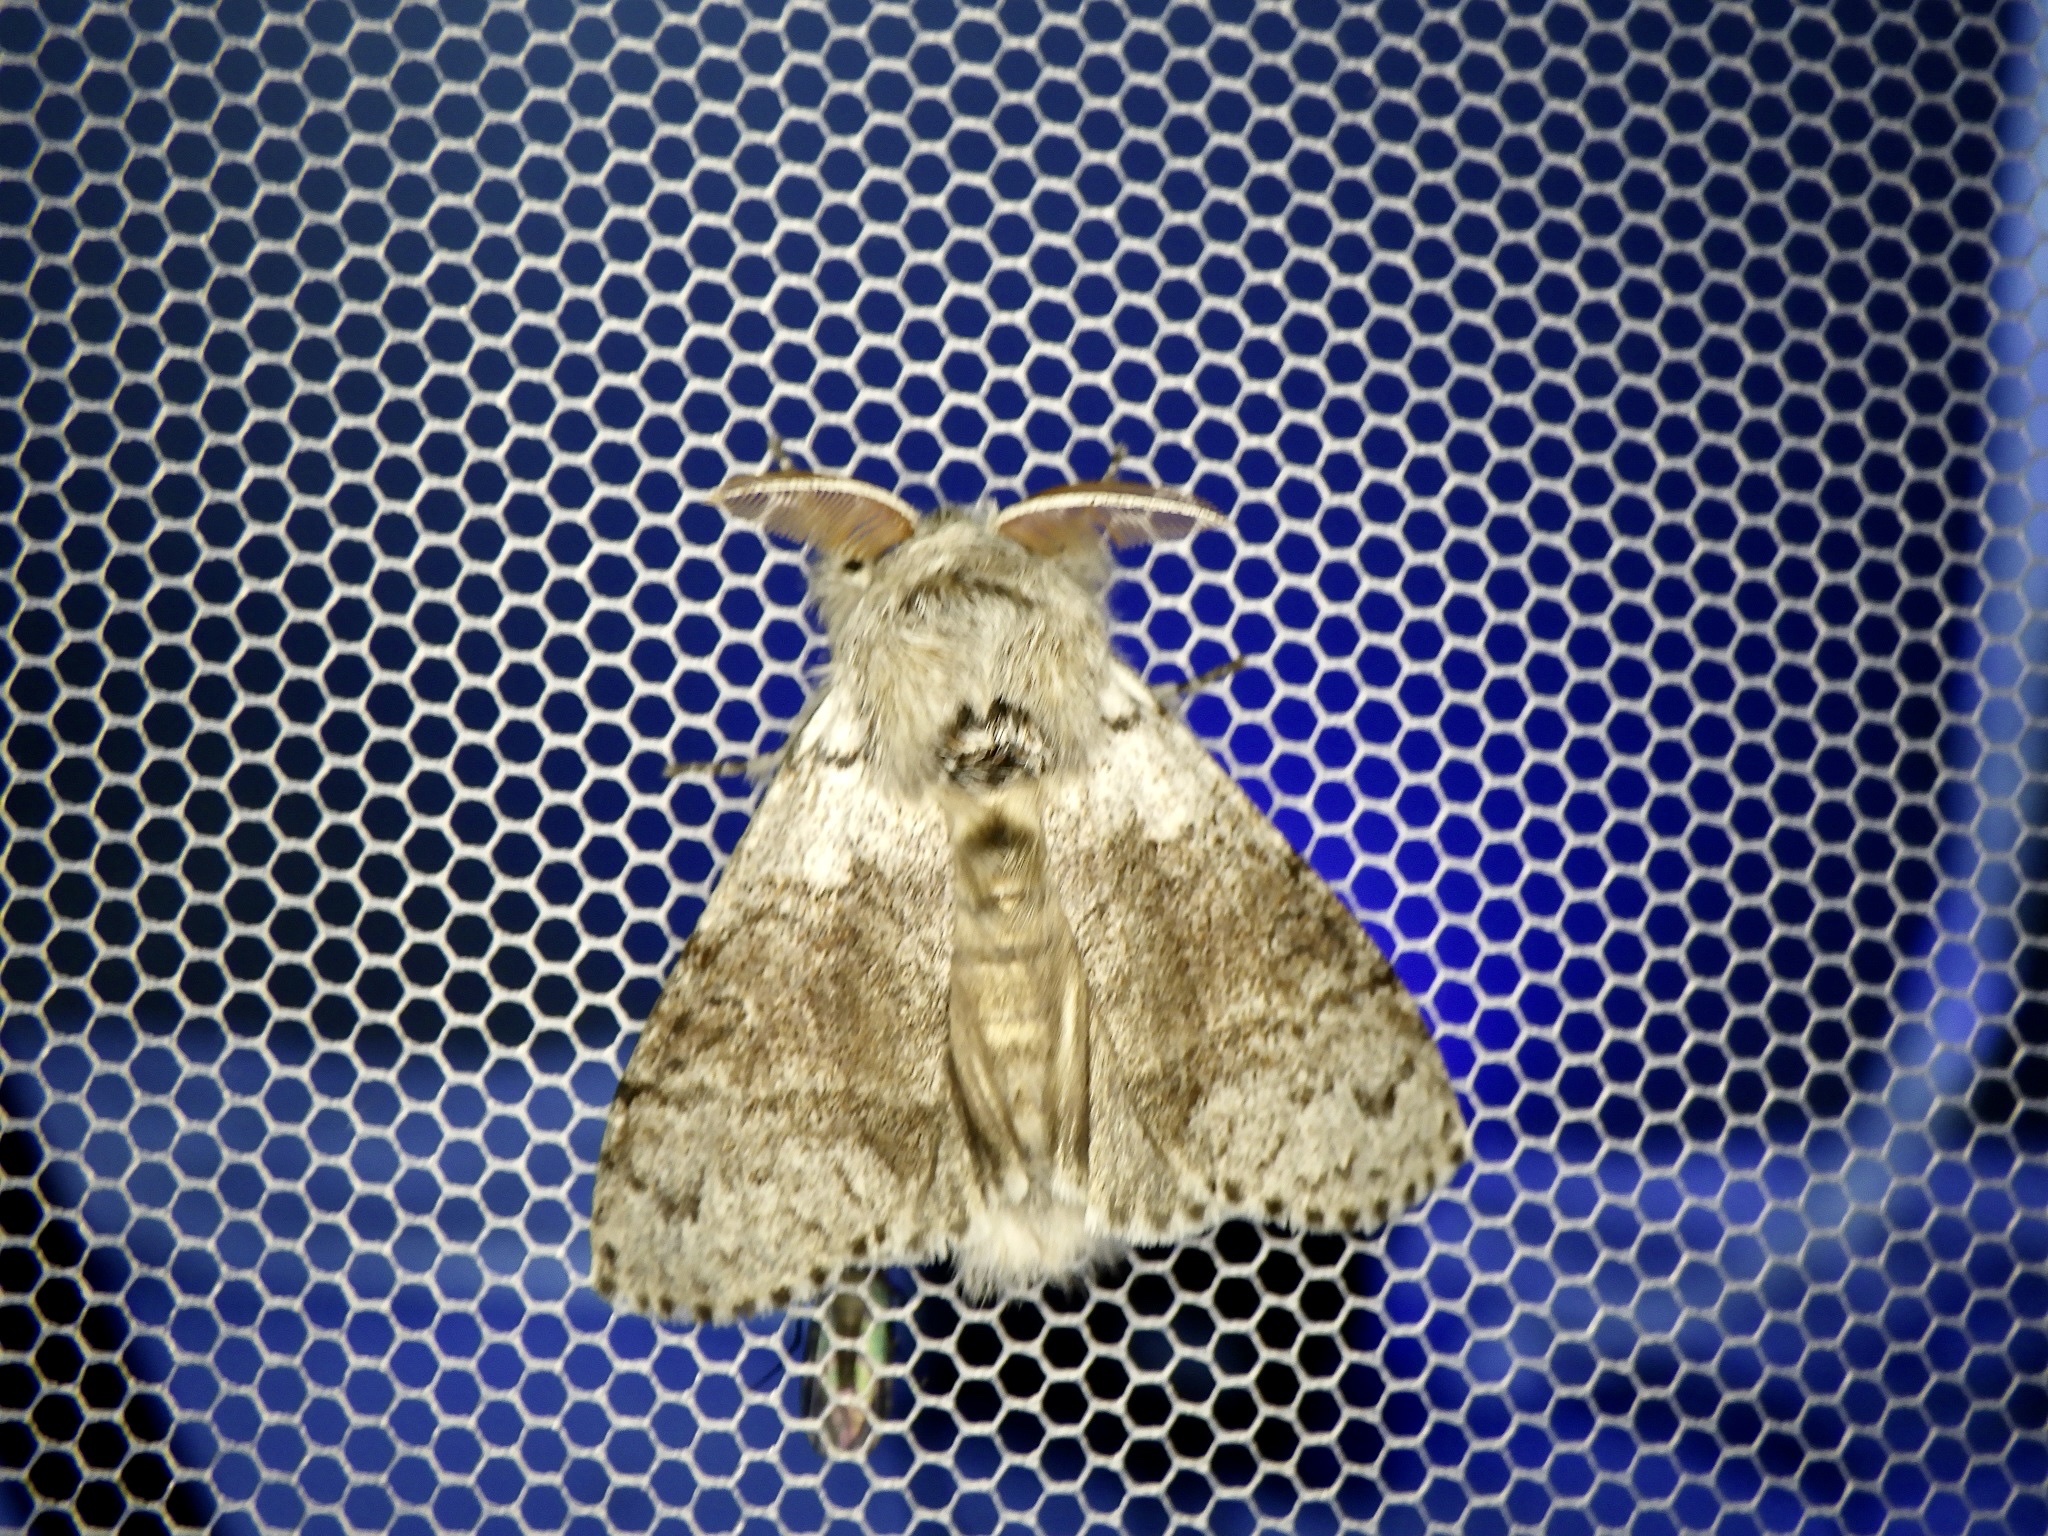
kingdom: Animalia
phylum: Arthropoda
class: Insecta
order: Lepidoptera
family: Erebidae
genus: Calliteara
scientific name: Calliteara
